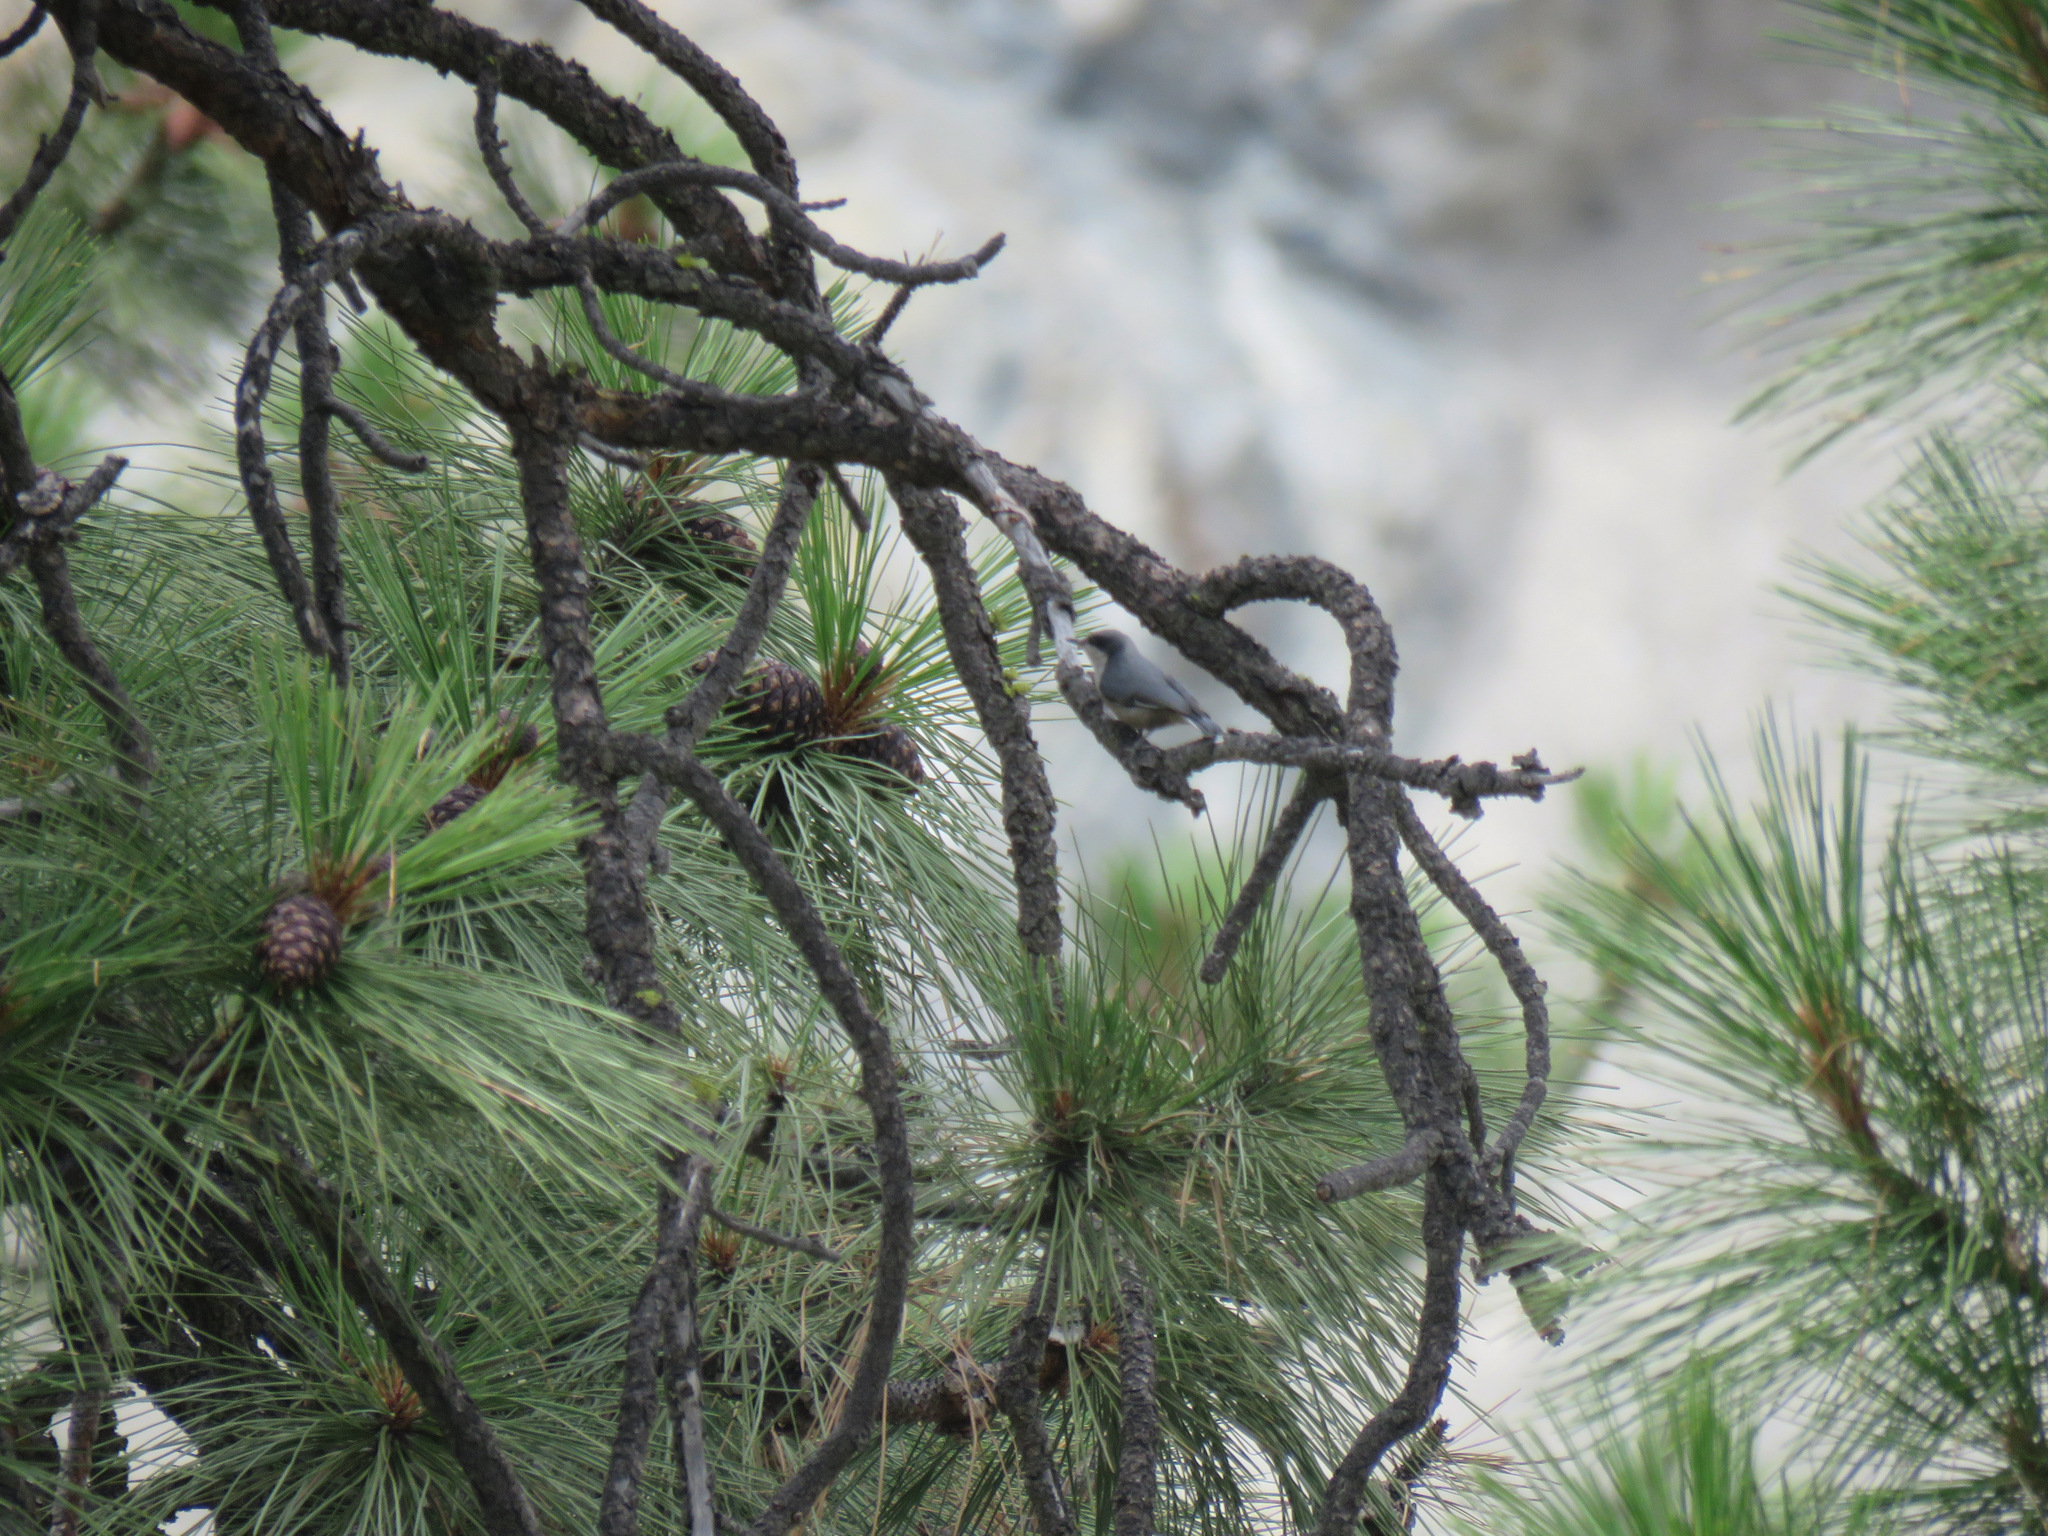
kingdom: Animalia
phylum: Chordata
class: Aves
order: Passeriformes
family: Sittidae
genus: Sitta
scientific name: Sitta pygmaea
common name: Pygmy nuthatch
